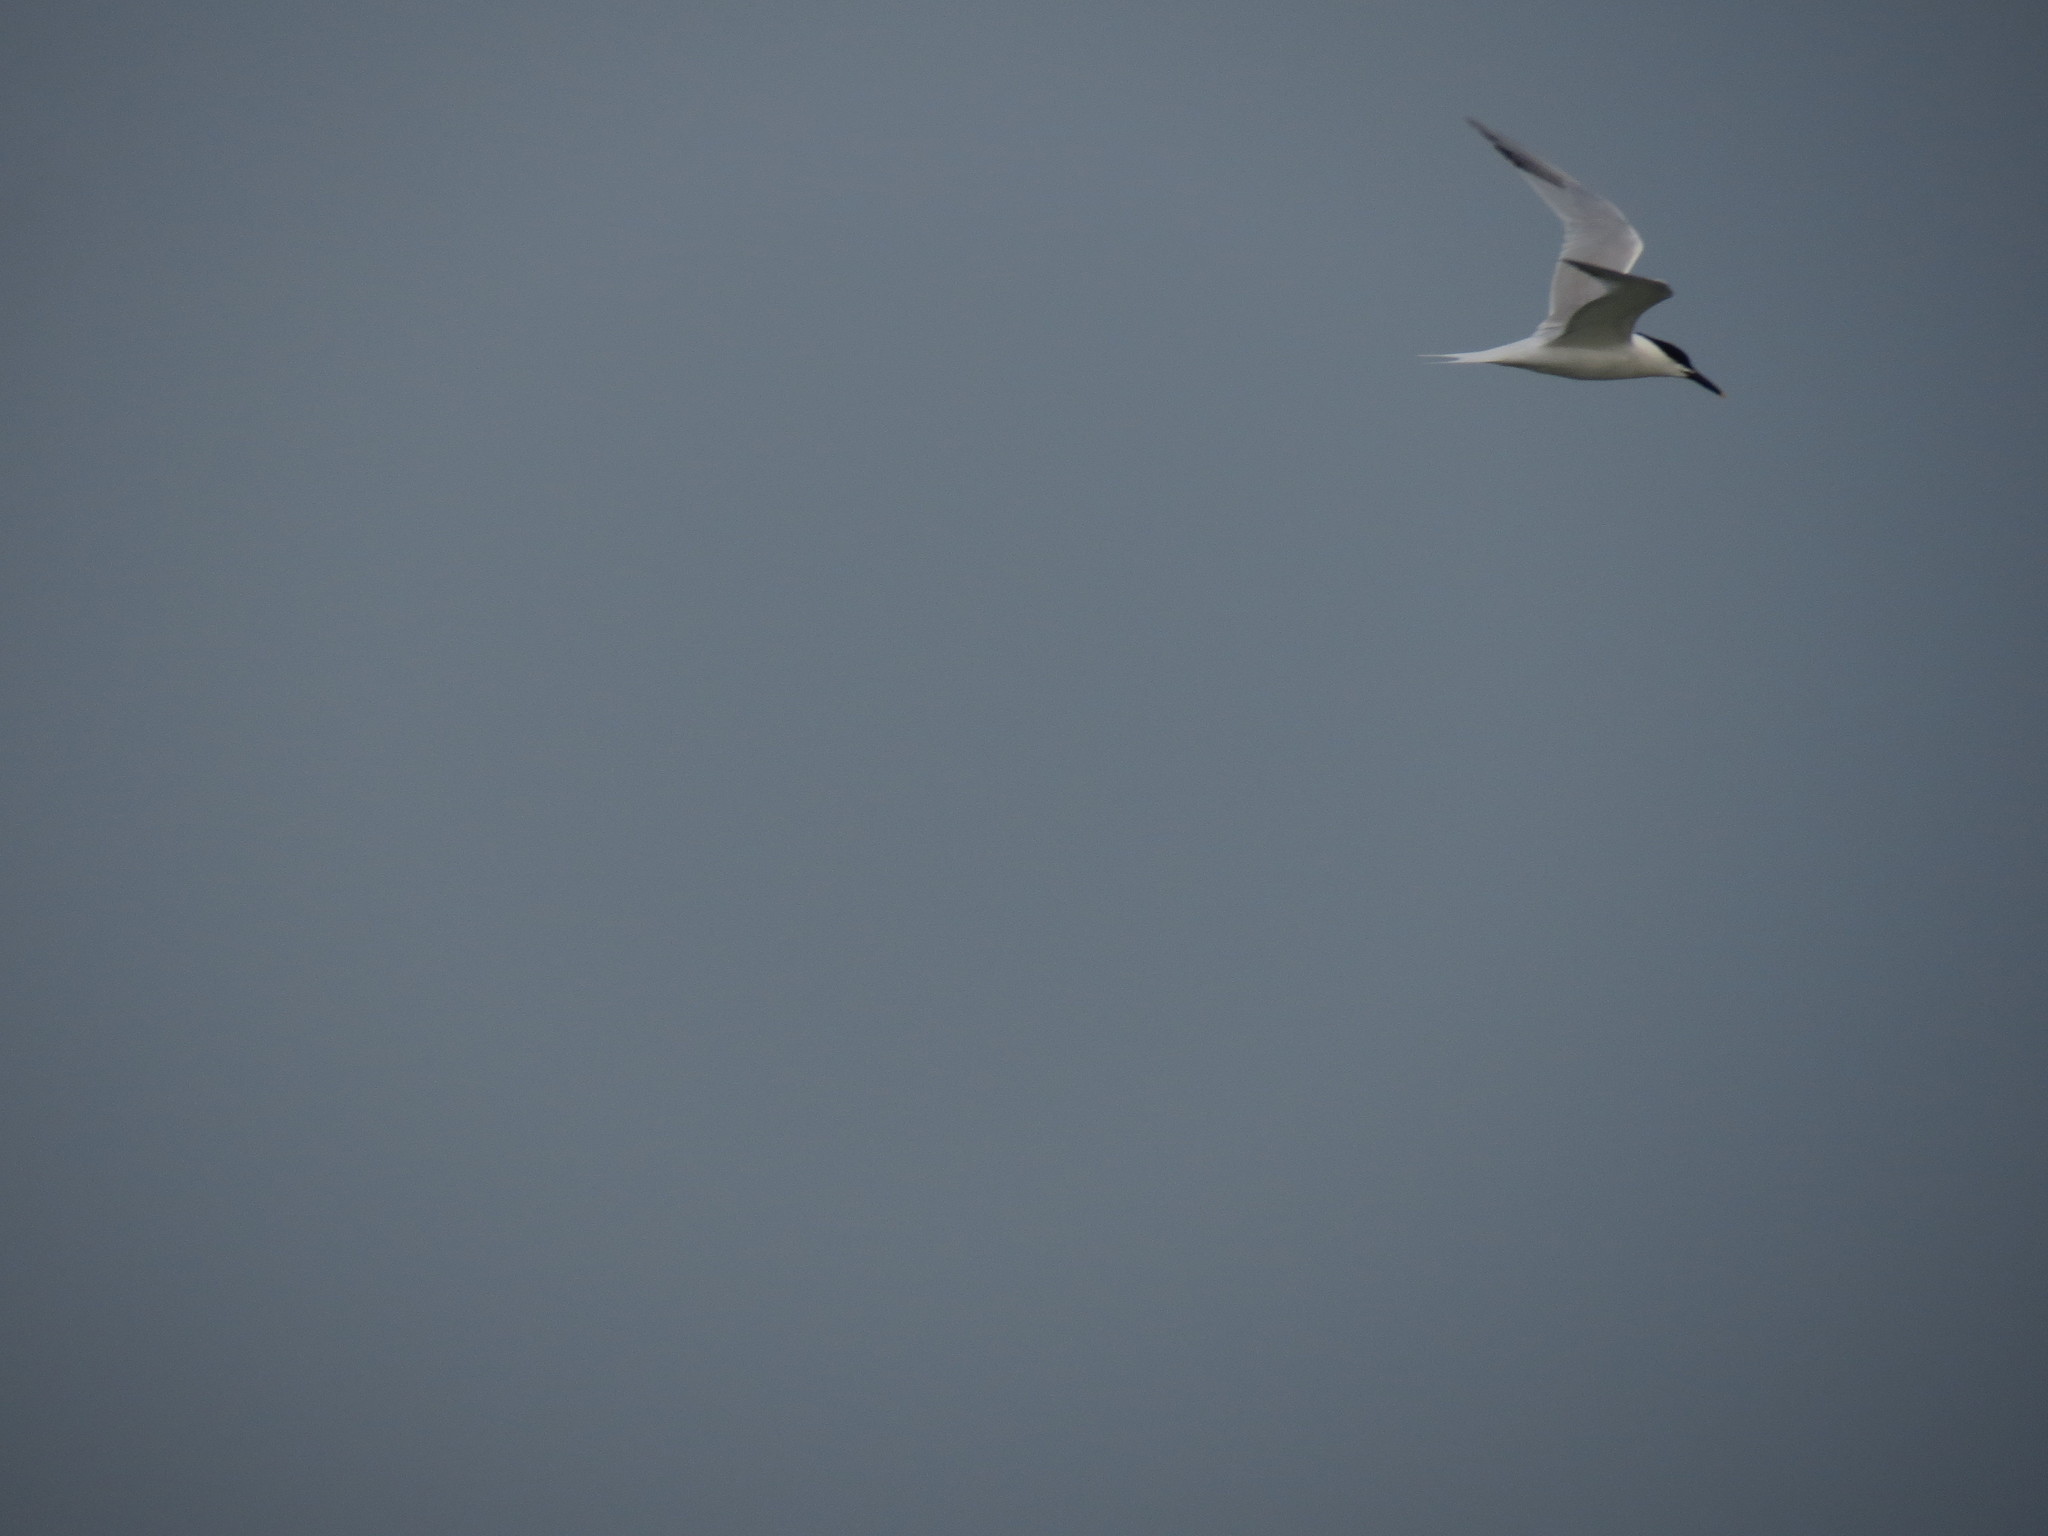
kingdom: Animalia
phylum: Chordata
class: Aves
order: Charadriiformes
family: Laridae
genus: Thalasseus
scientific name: Thalasseus sandvicensis
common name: Sandwich tern
